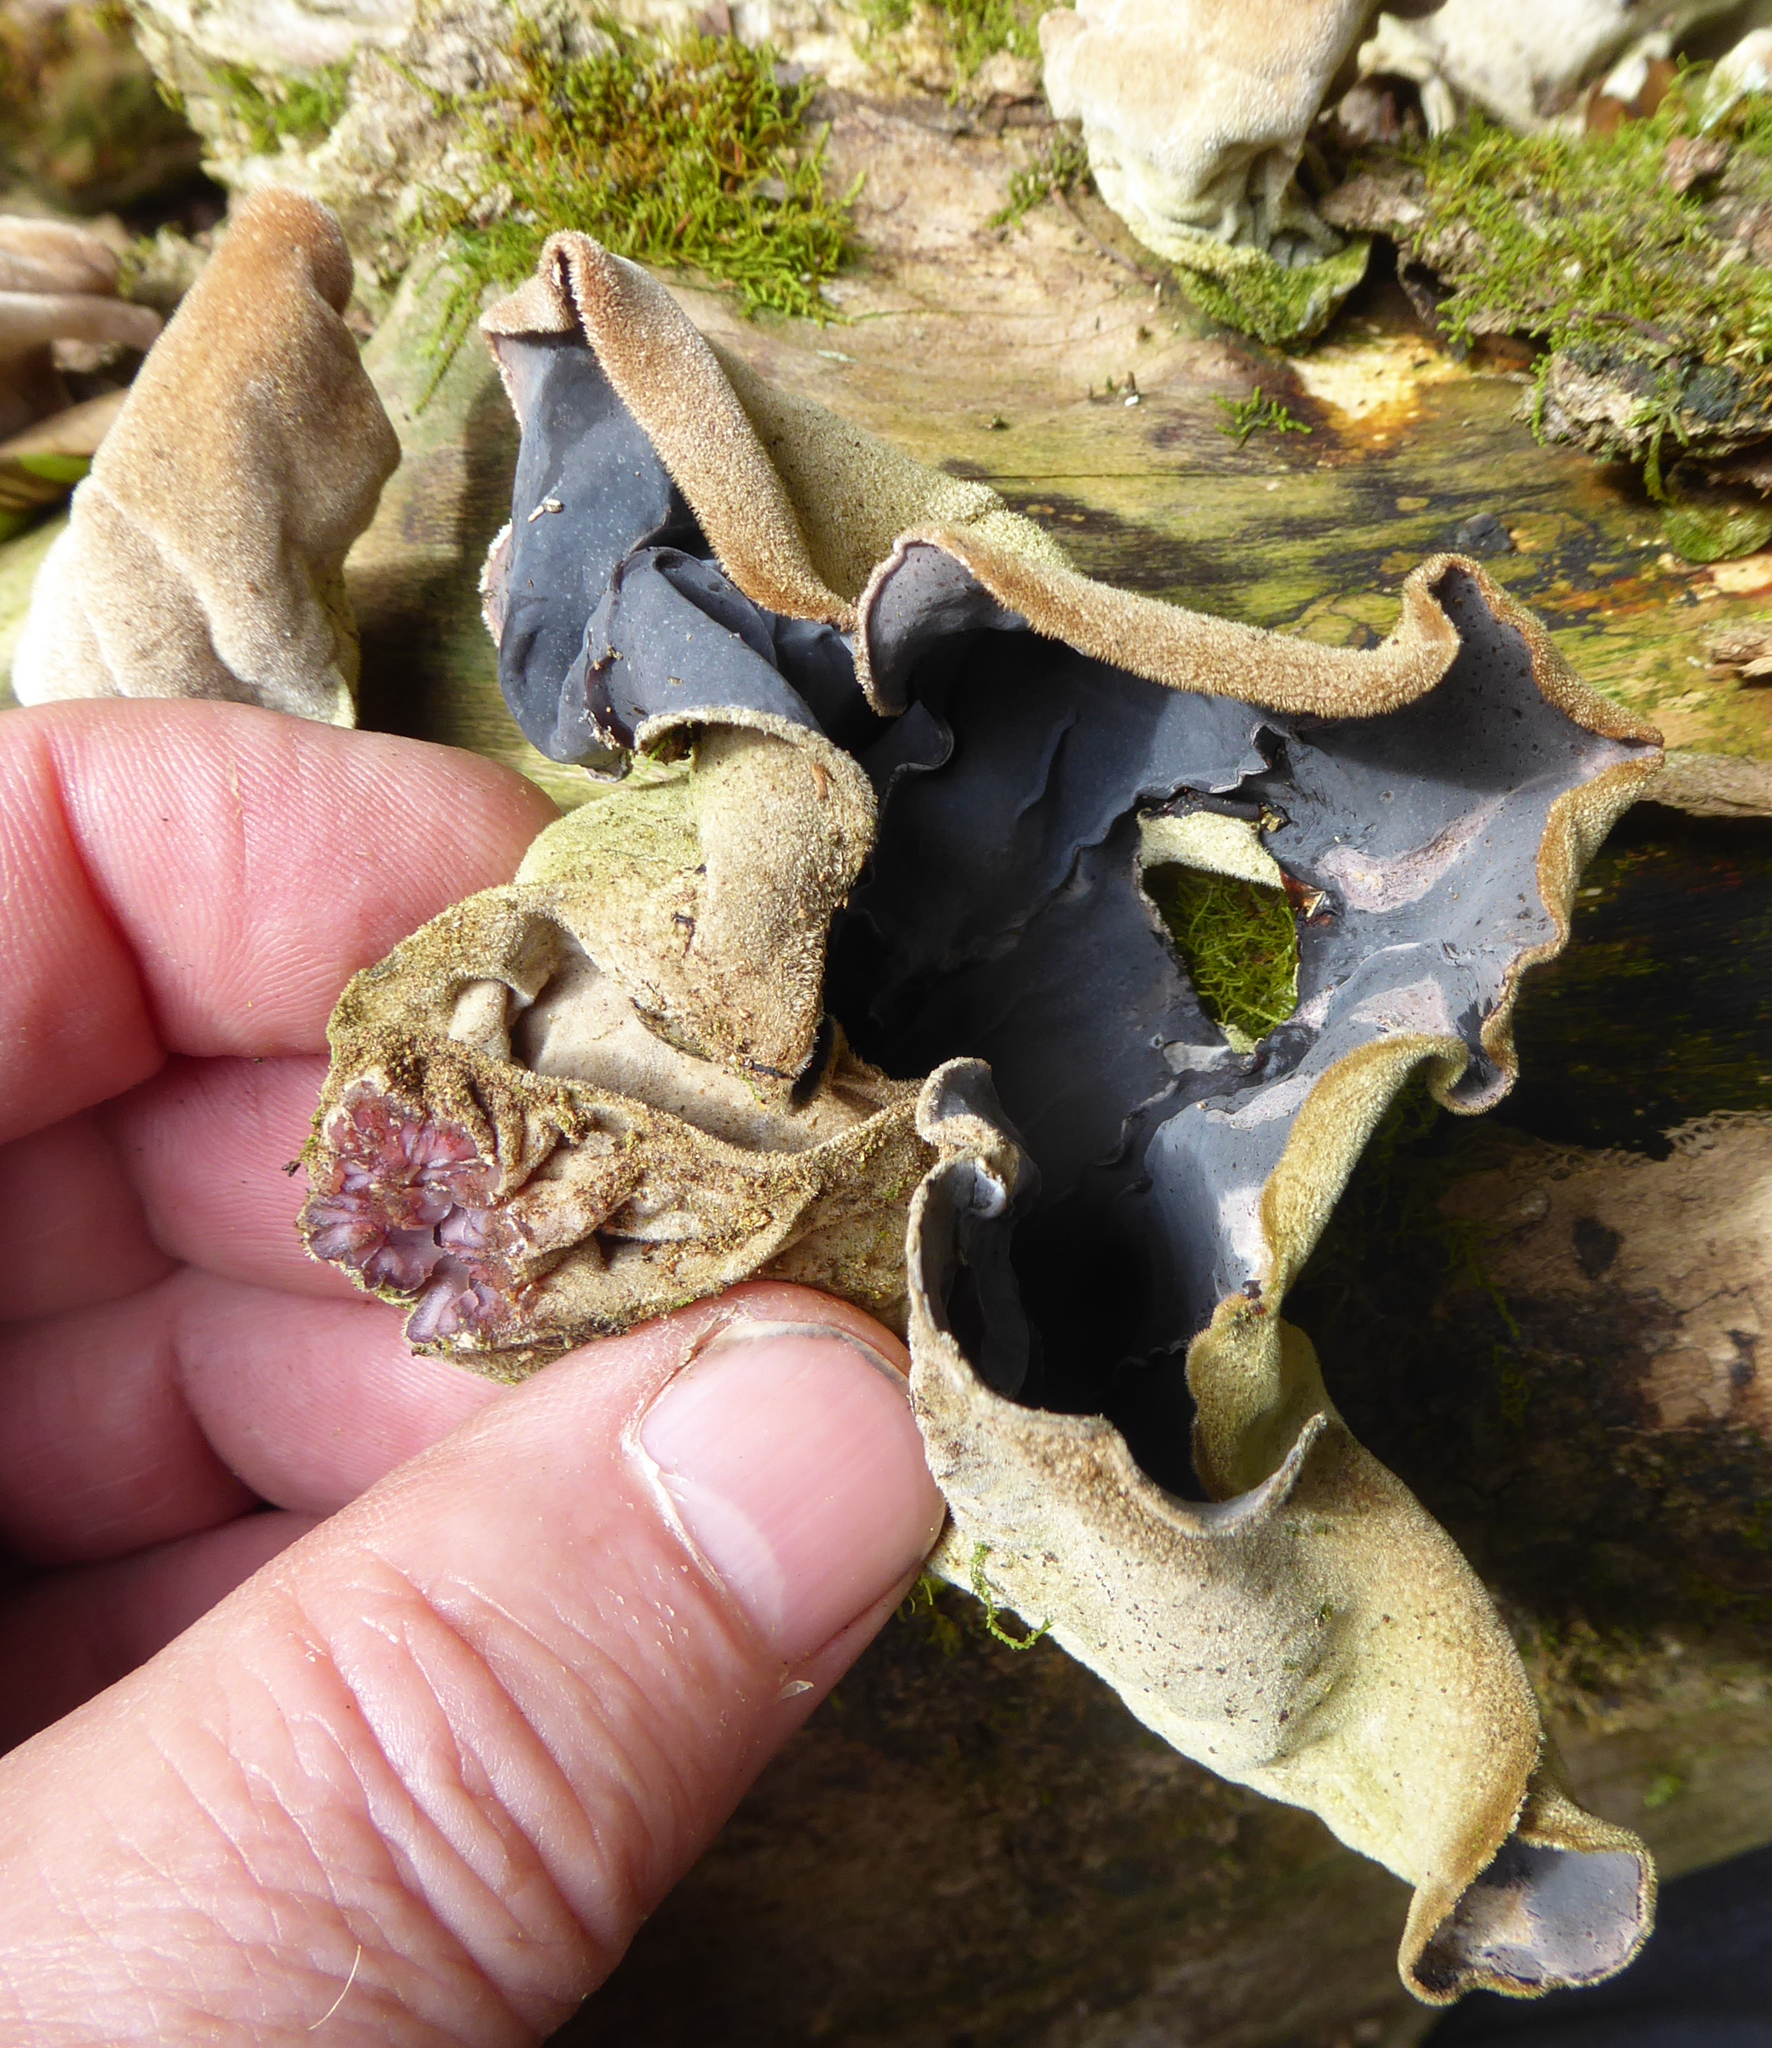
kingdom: Fungi
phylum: Basidiomycota
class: Agaricomycetes
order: Auriculariales
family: Auriculariaceae
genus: Auricularia
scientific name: Auricularia cornea
